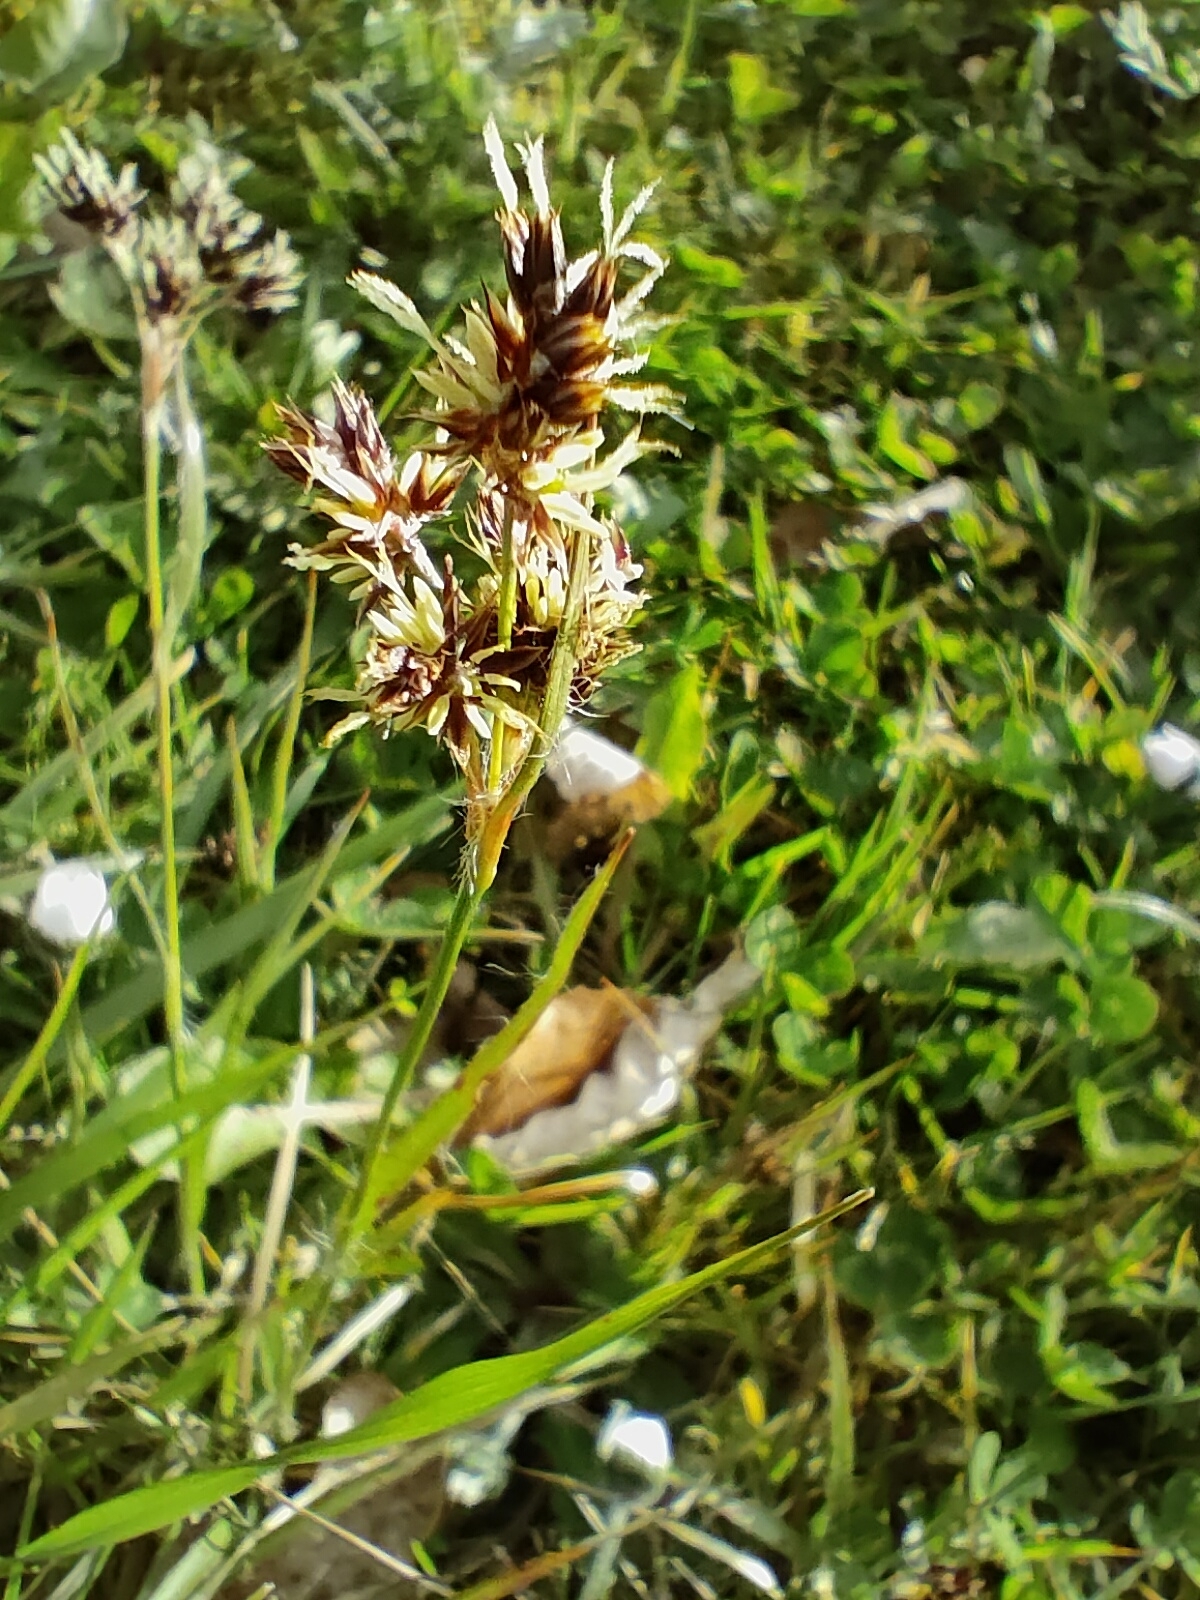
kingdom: Plantae
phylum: Tracheophyta
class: Liliopsida
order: Poales
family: Juncaceae
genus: Luzula
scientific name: Luzula campestris
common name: Field wood-rush
